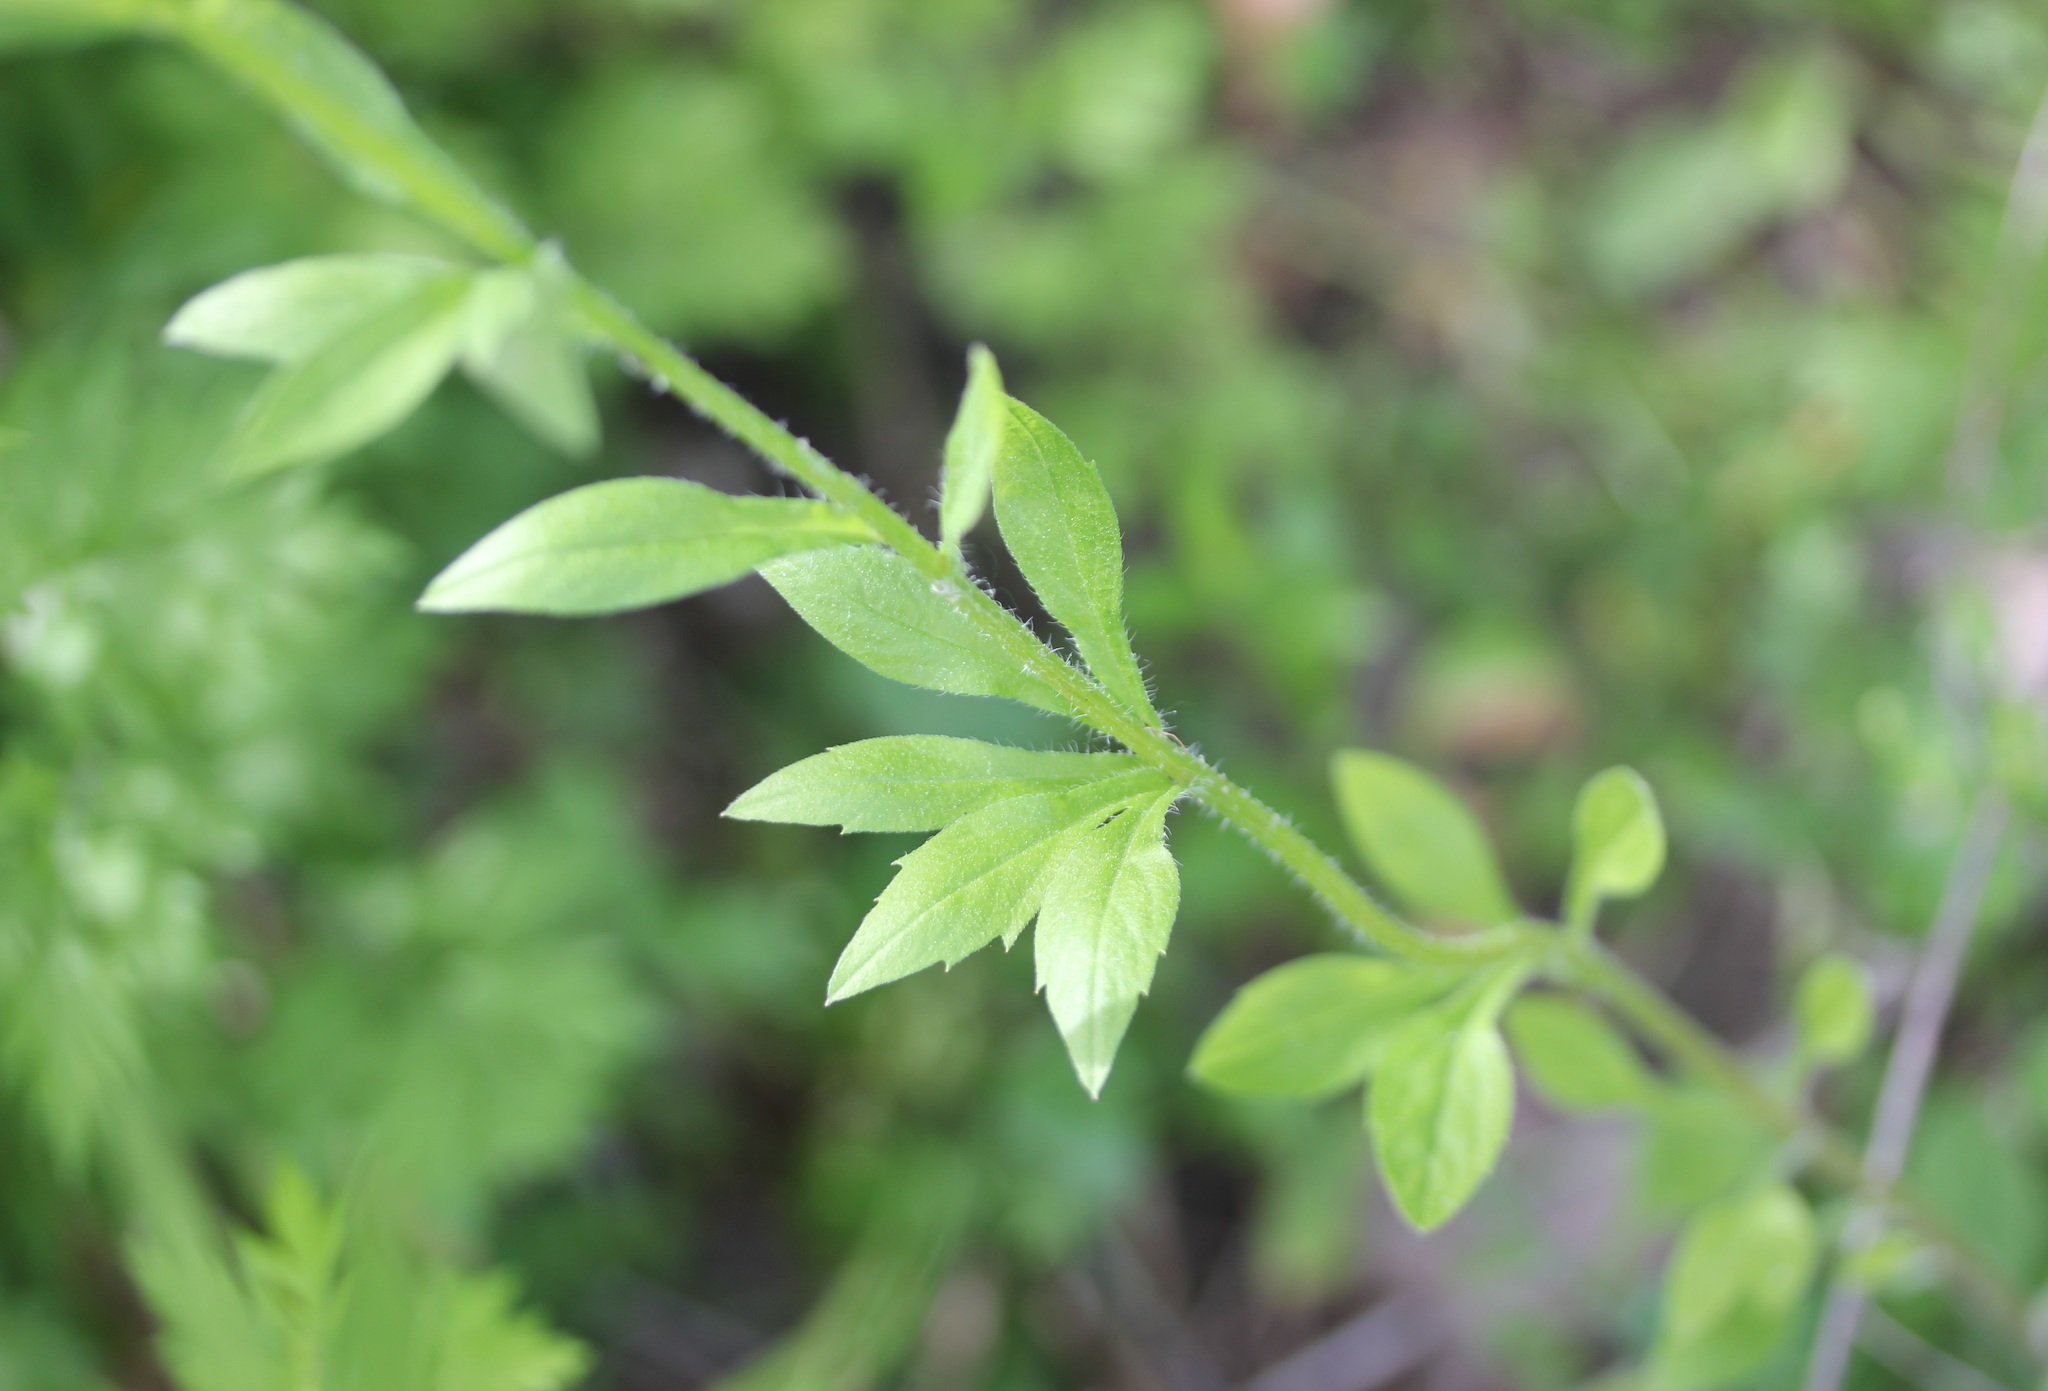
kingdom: Plantae
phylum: Tracheophyta
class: Magnoliopsida
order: Asterales
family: Asteraceae
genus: Erigeron
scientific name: Erigeron annuus
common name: Tall fleabane
